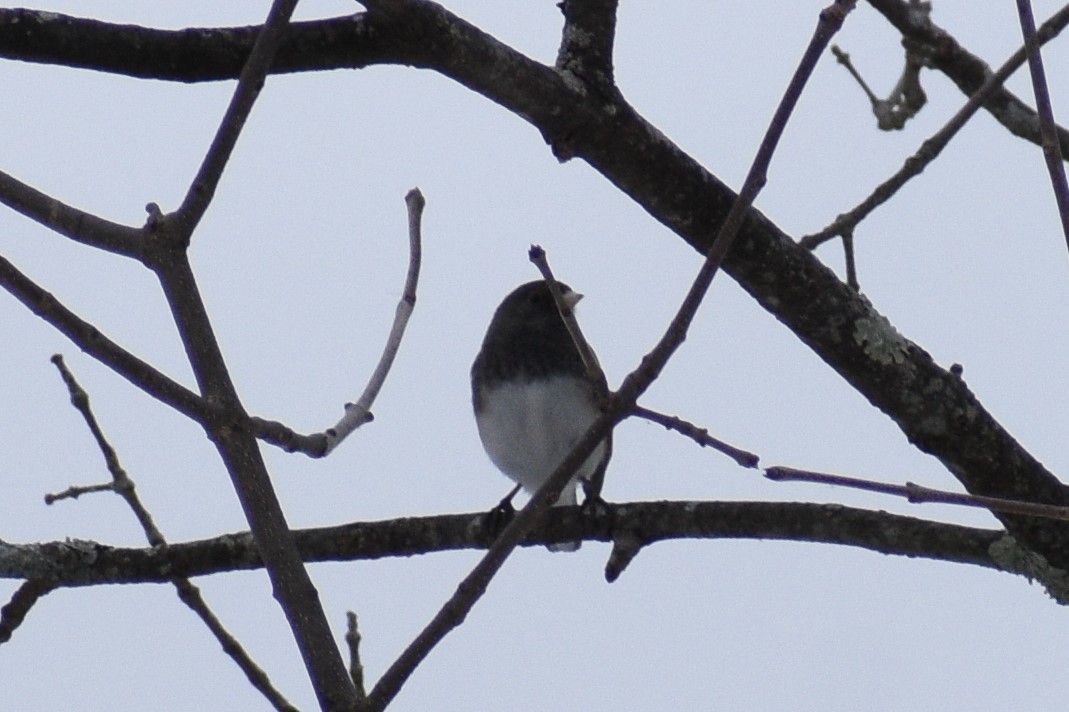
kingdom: Animalia
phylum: Chordata
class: Aves
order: Passeriformes
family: Passerellidae
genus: Junco
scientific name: Junco hyemalis
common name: Dark-eyed junco
